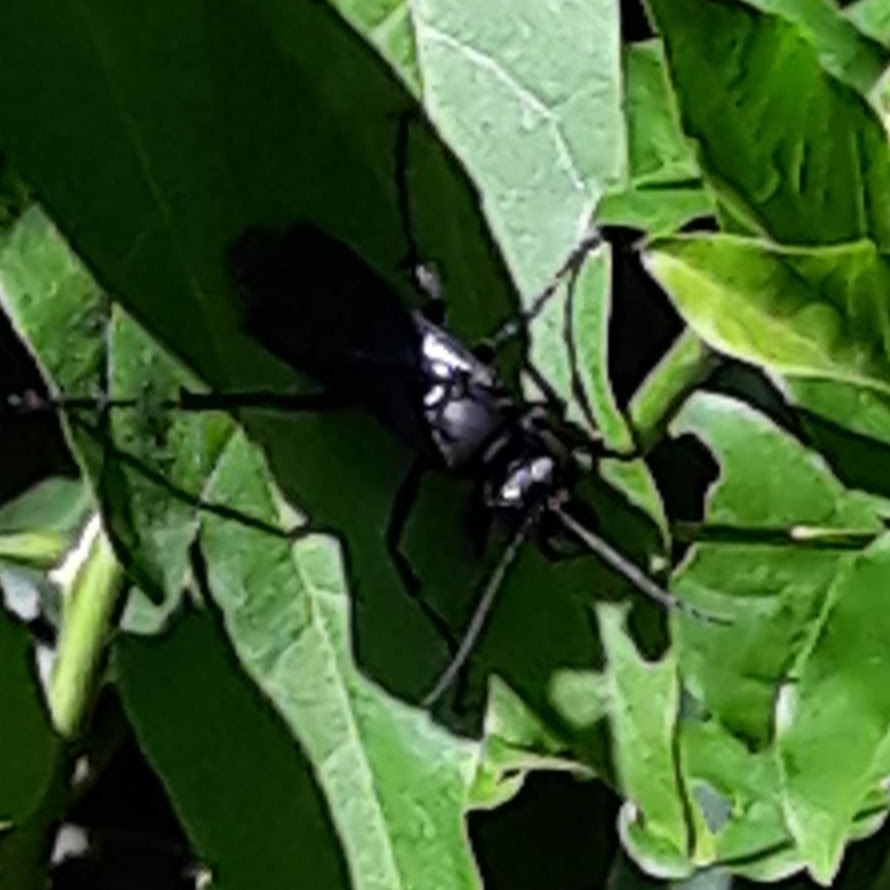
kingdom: Animalia
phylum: Arthropoda
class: Insecta
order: Hymenoptera
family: Sphecidae
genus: Sphex
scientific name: Sphex pensylvanicus
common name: Great black digger wasp
